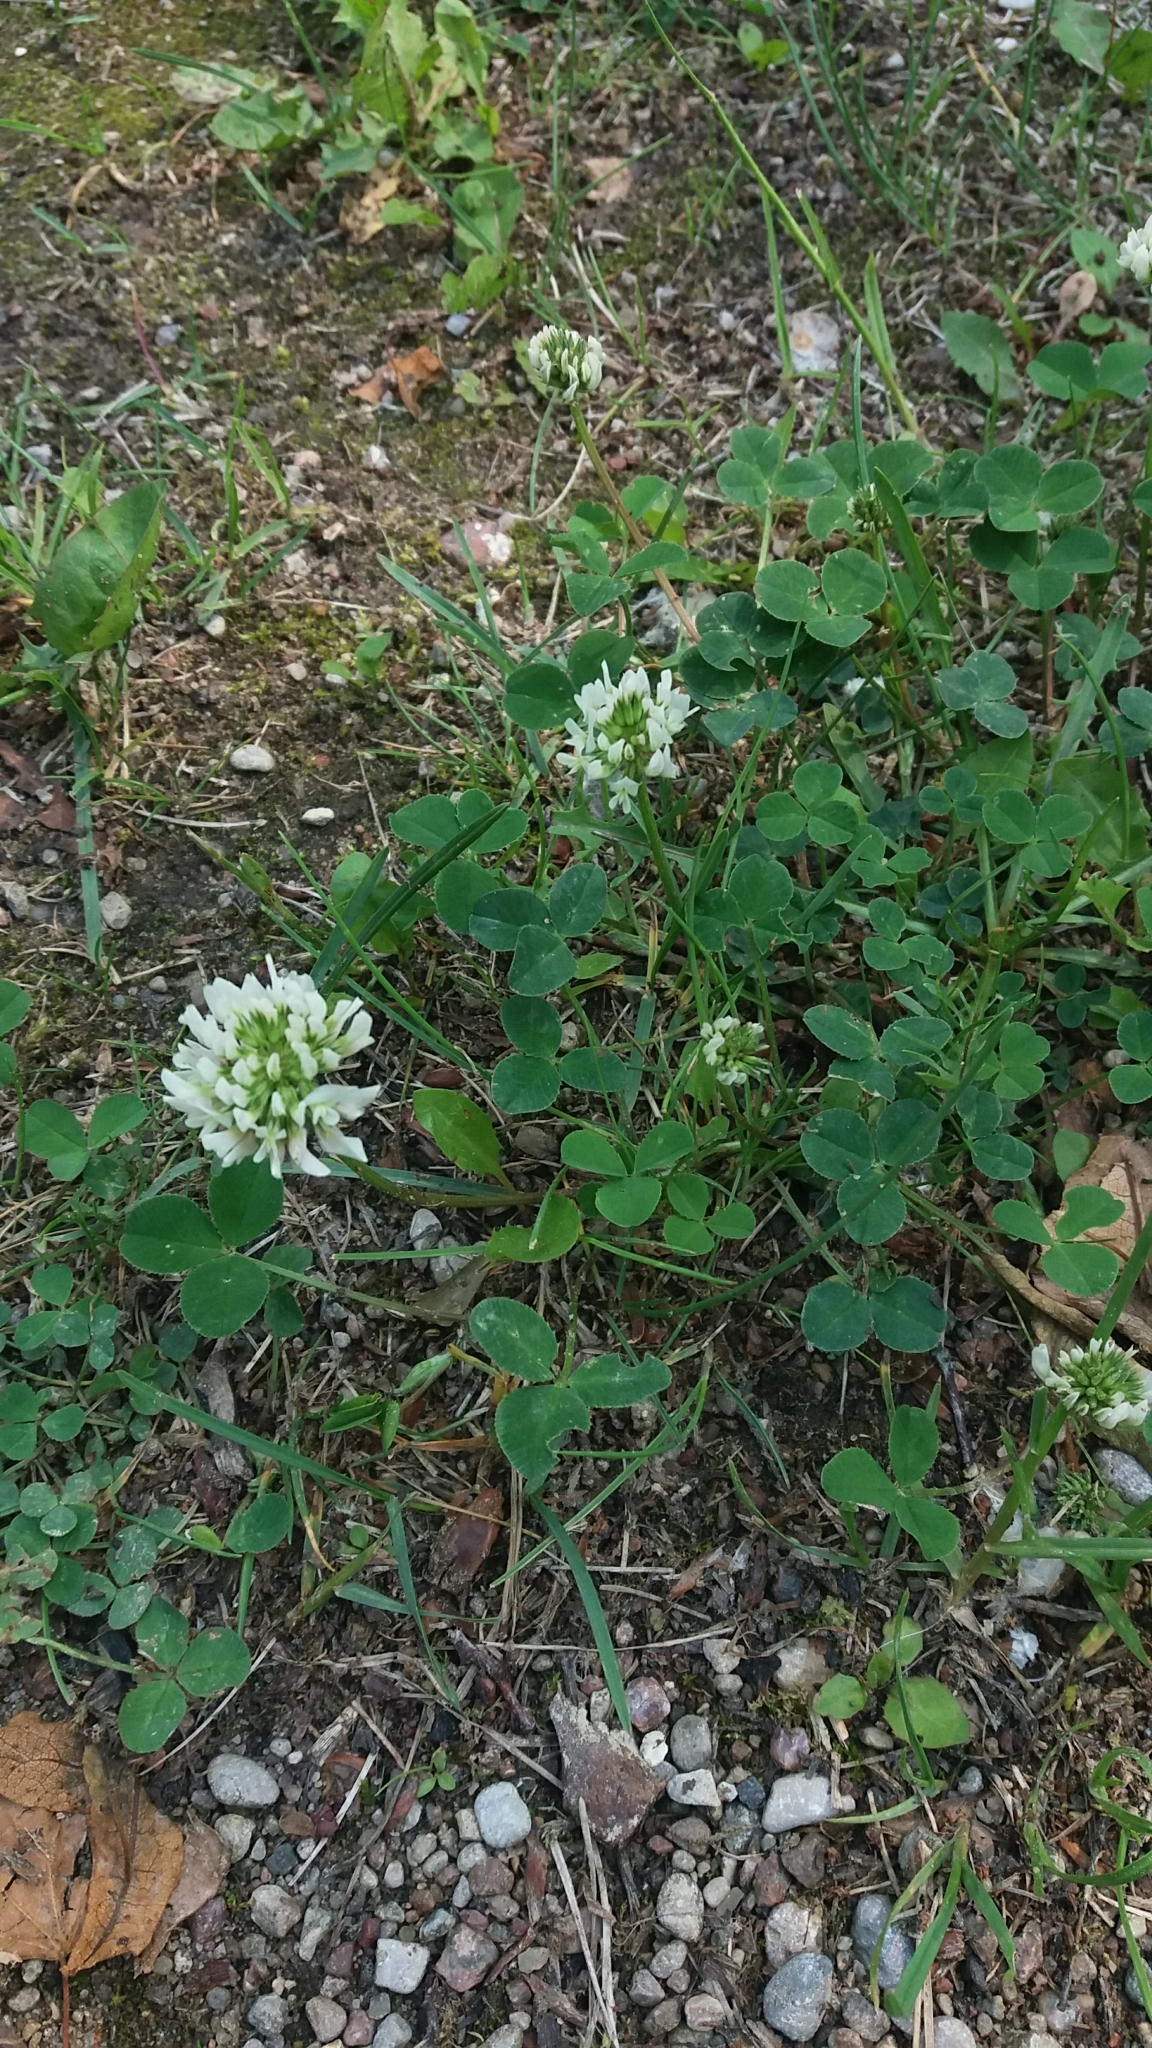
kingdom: Plantae
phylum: Tracheophyta
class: Magnoliopsida
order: Fabales
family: Fabaceae
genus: Trifolium
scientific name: Trifolium repens
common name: White clover
